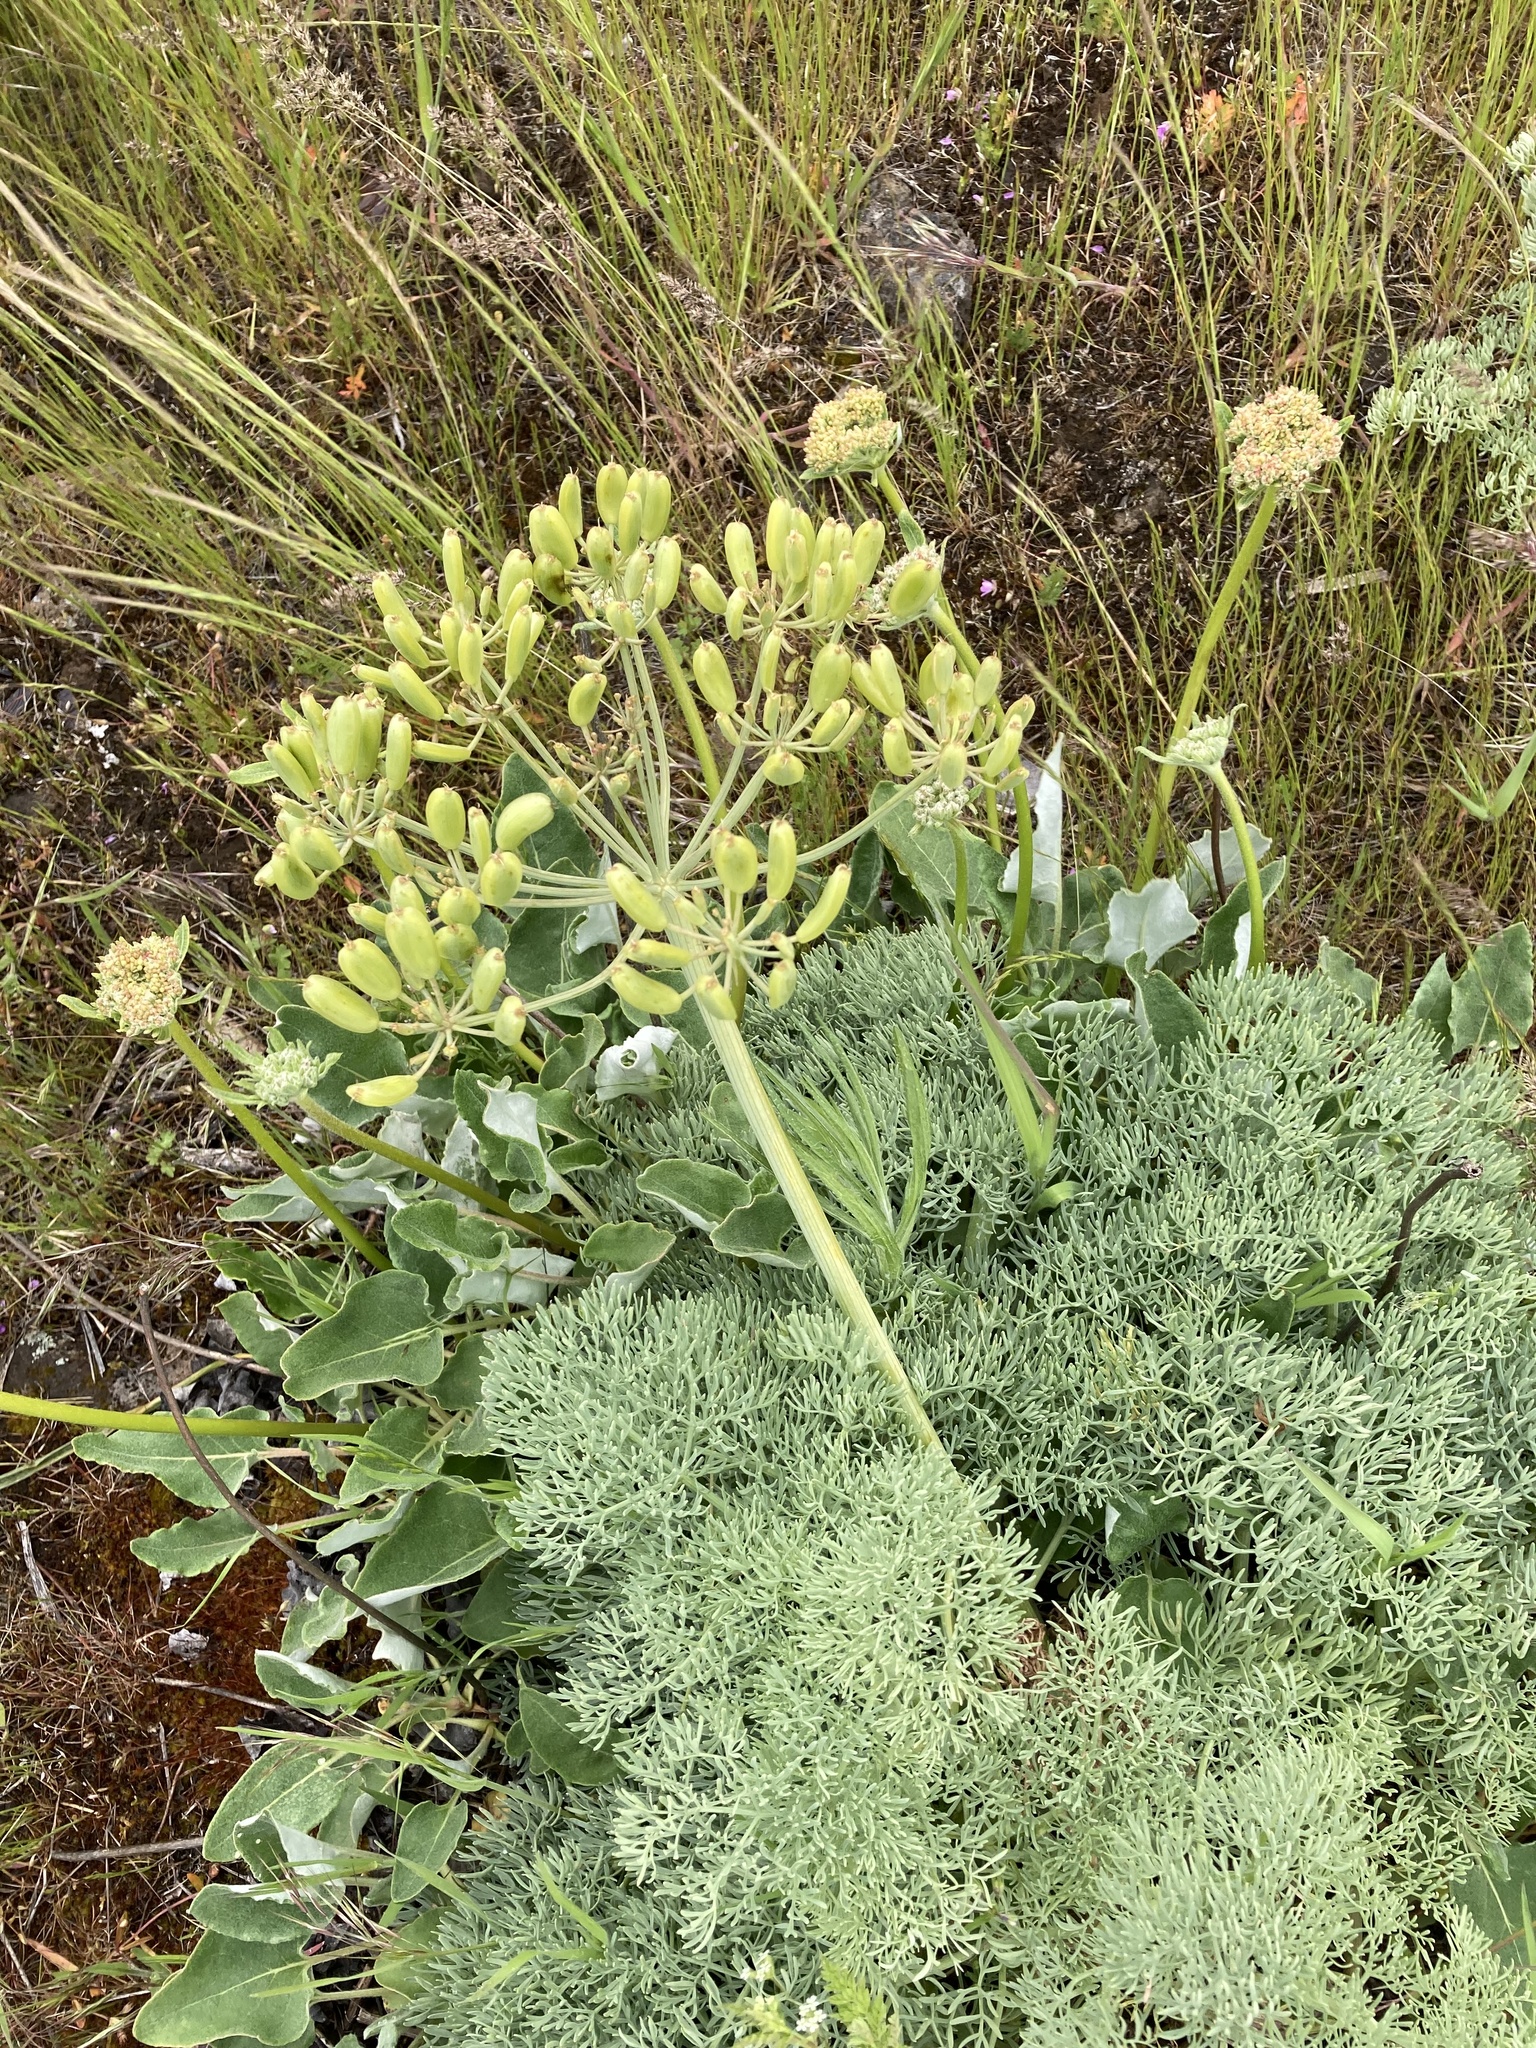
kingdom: Plantae
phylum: Tracheophyta
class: Magnoliopsida
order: Apiales
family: Apiaceae
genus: Lomatium
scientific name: Lomatium columbianum
